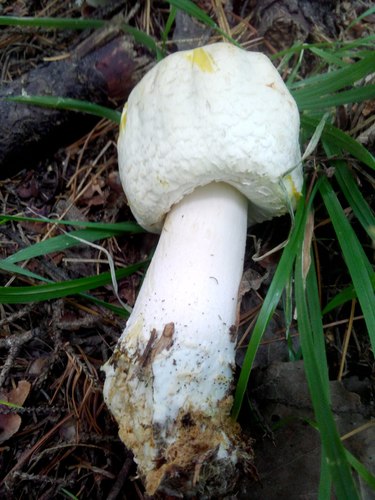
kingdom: Fungi
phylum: Basidiomycota
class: Agaricomycetes
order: Agaricales
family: Agaricaceae
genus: Agaricus
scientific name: Agaricus xanthodermus
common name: Yellow stainer
